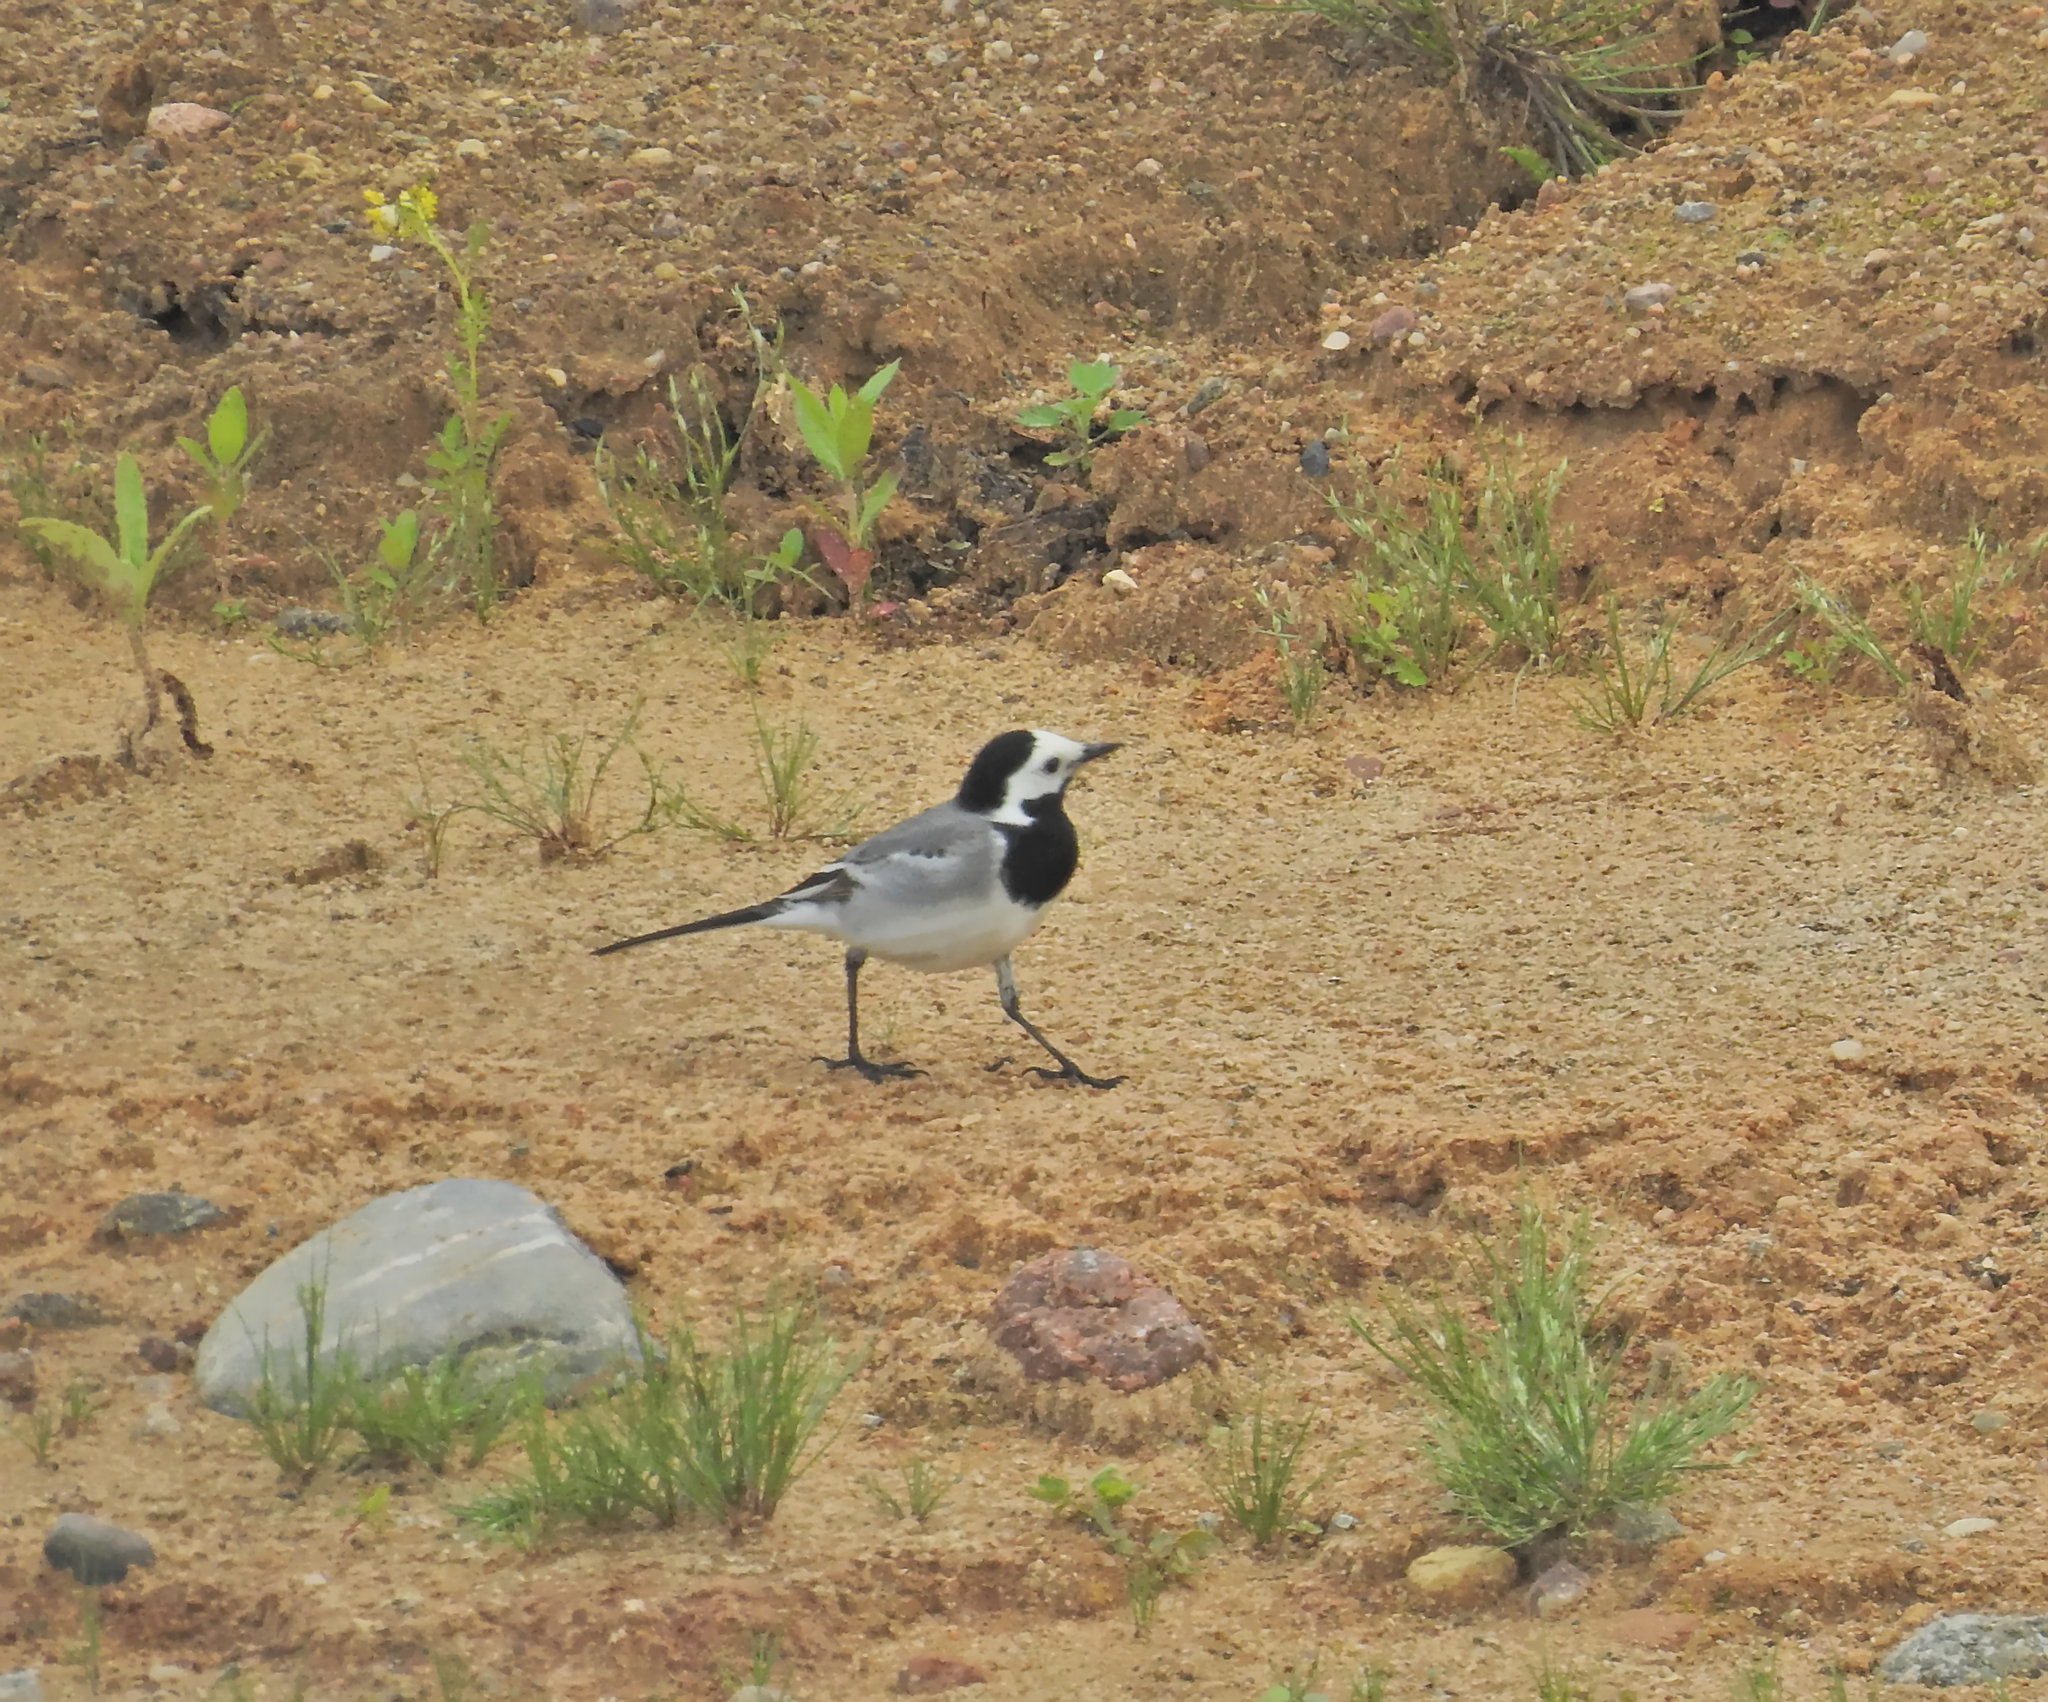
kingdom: Animalia
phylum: Chordata
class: Aves
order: Passeriformes
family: Motacillidae
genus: Motacilla
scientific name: Motacilla alba
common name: White wagtail
